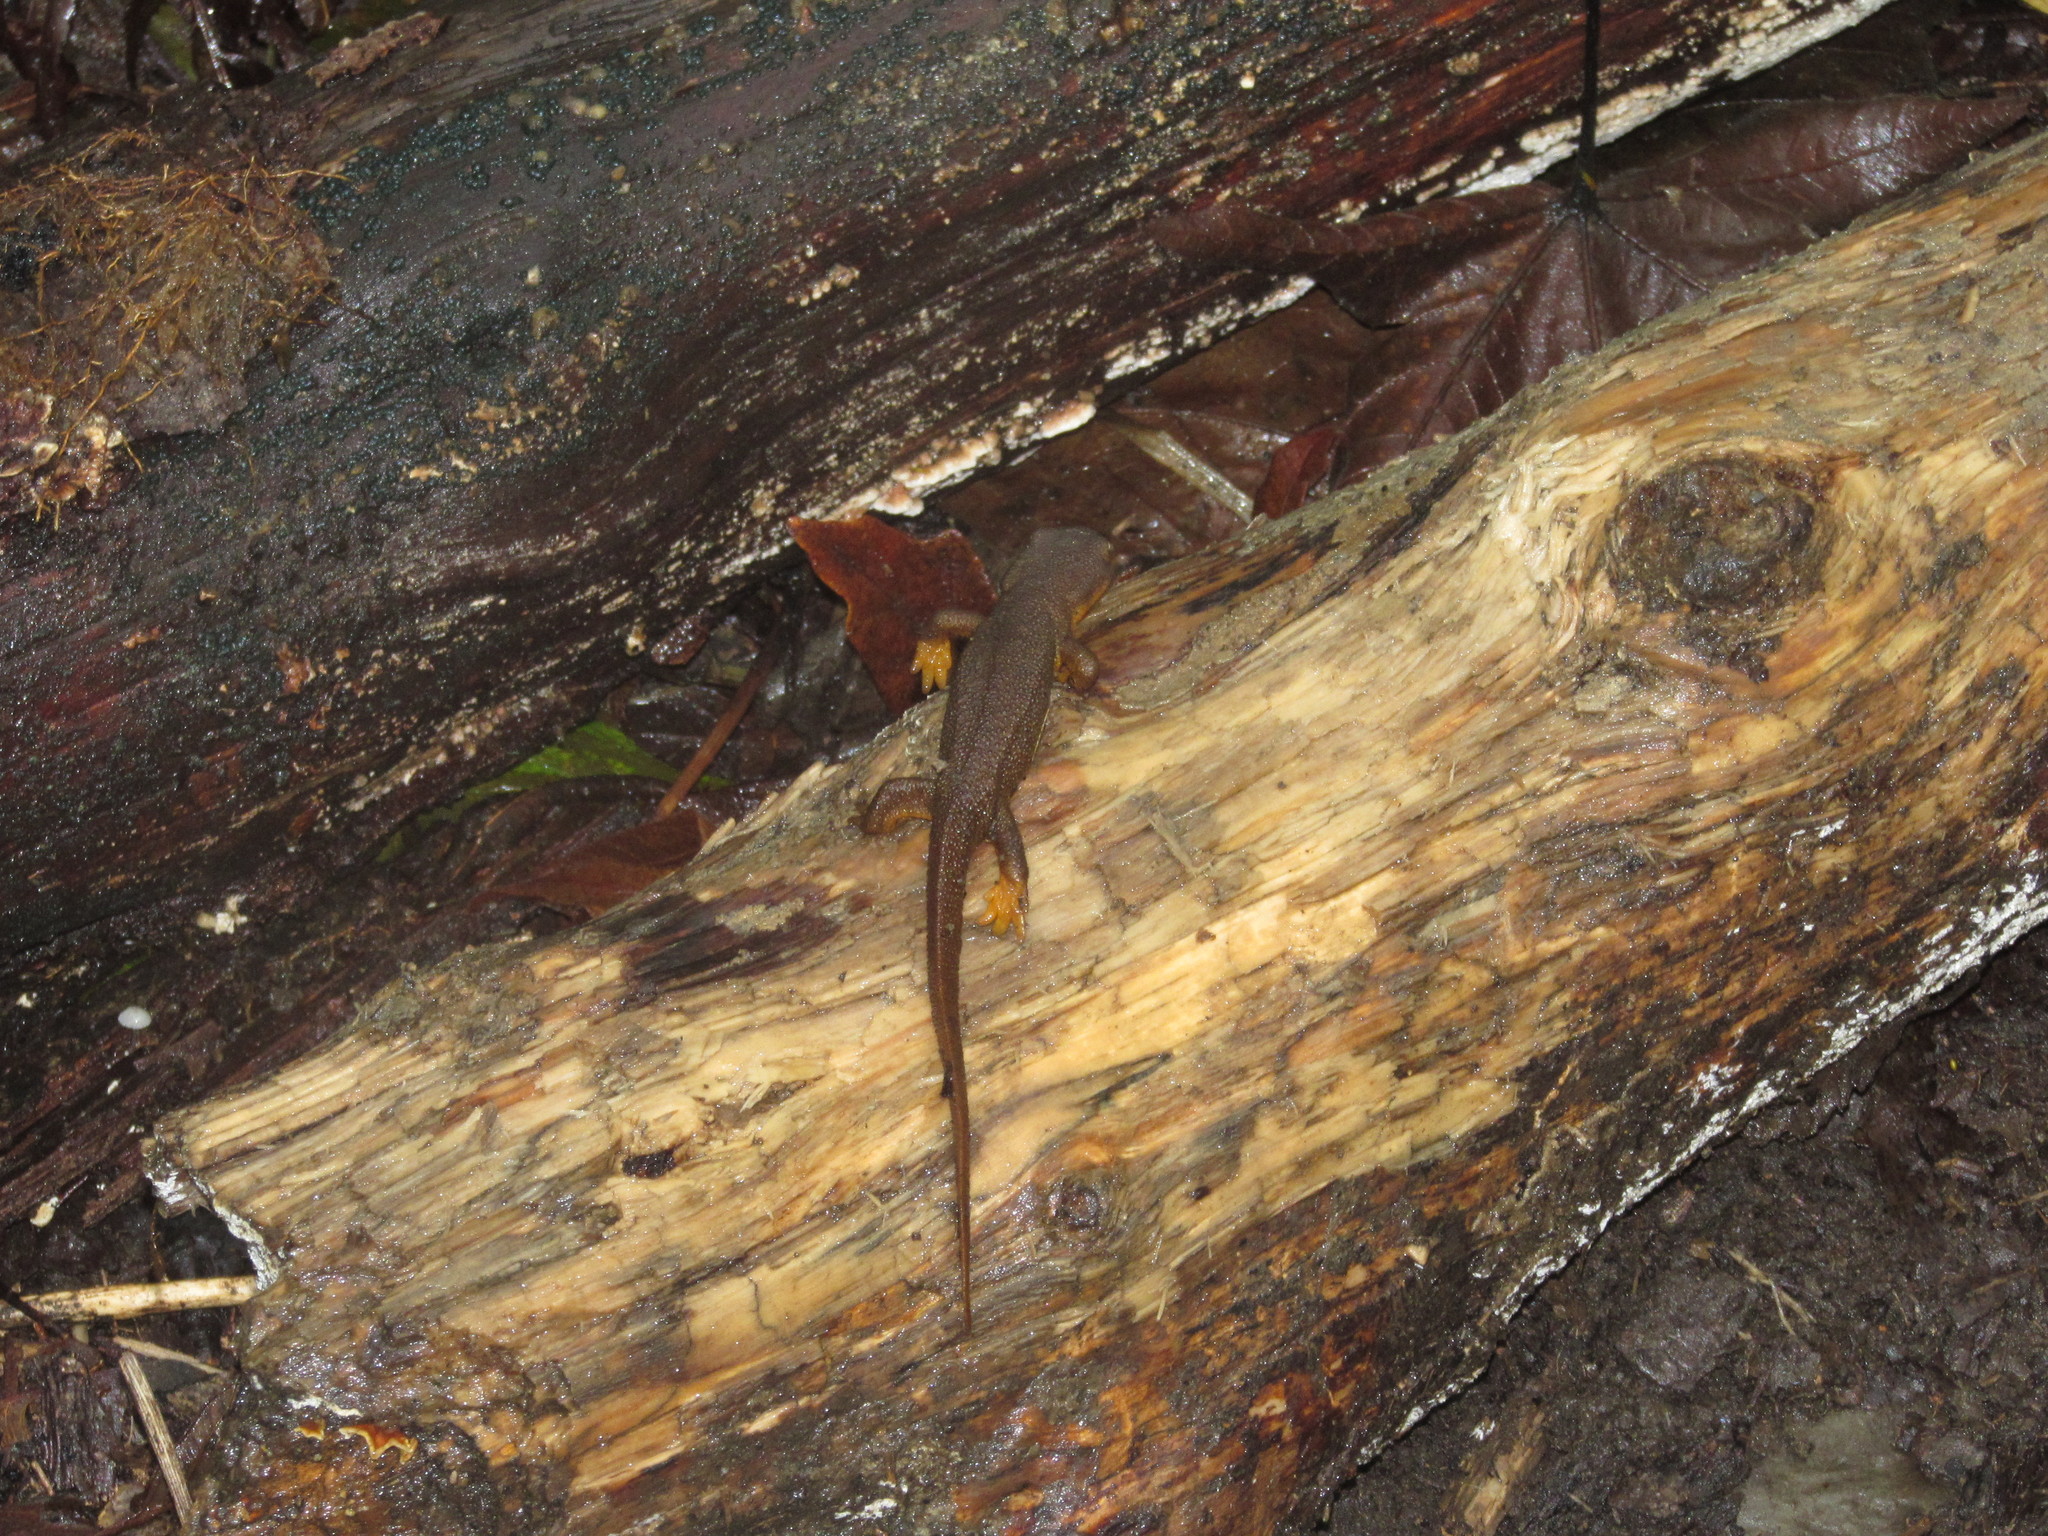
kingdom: Animalia
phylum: Chordata
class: Amphibia
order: Caudata
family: Salamandridae
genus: Taricha
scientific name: Taricha granulosa
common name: Roughskin newt
